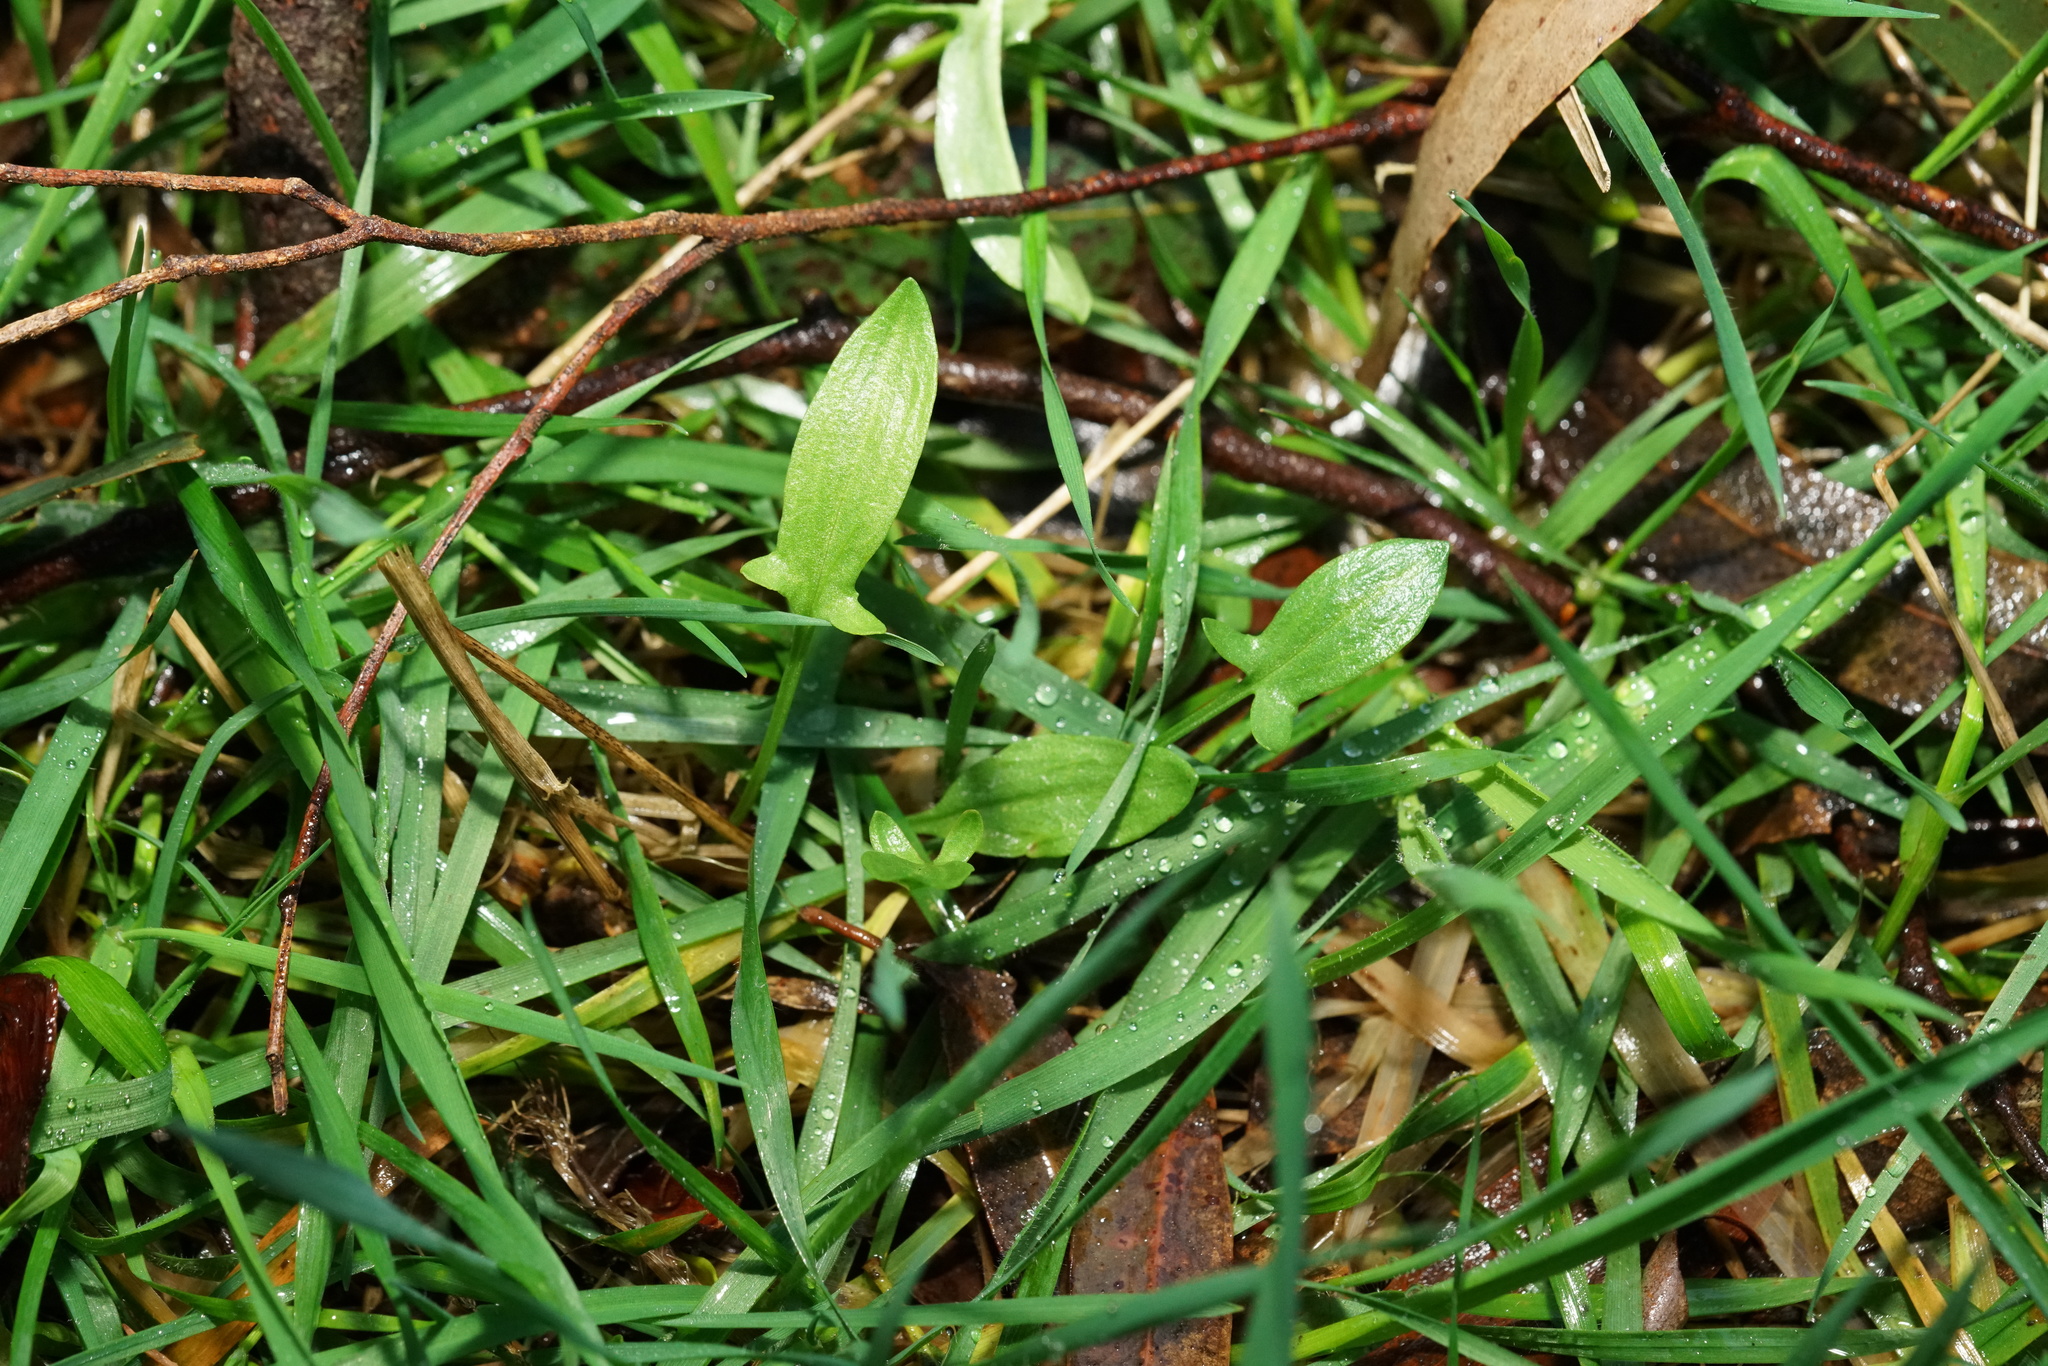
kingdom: Plantae
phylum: Tracheophyta
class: Magnoliopsida
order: Caryophyllales
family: Polygonaceae
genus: Rumex
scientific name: Rumex acetosella
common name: Common sheep sorrel
